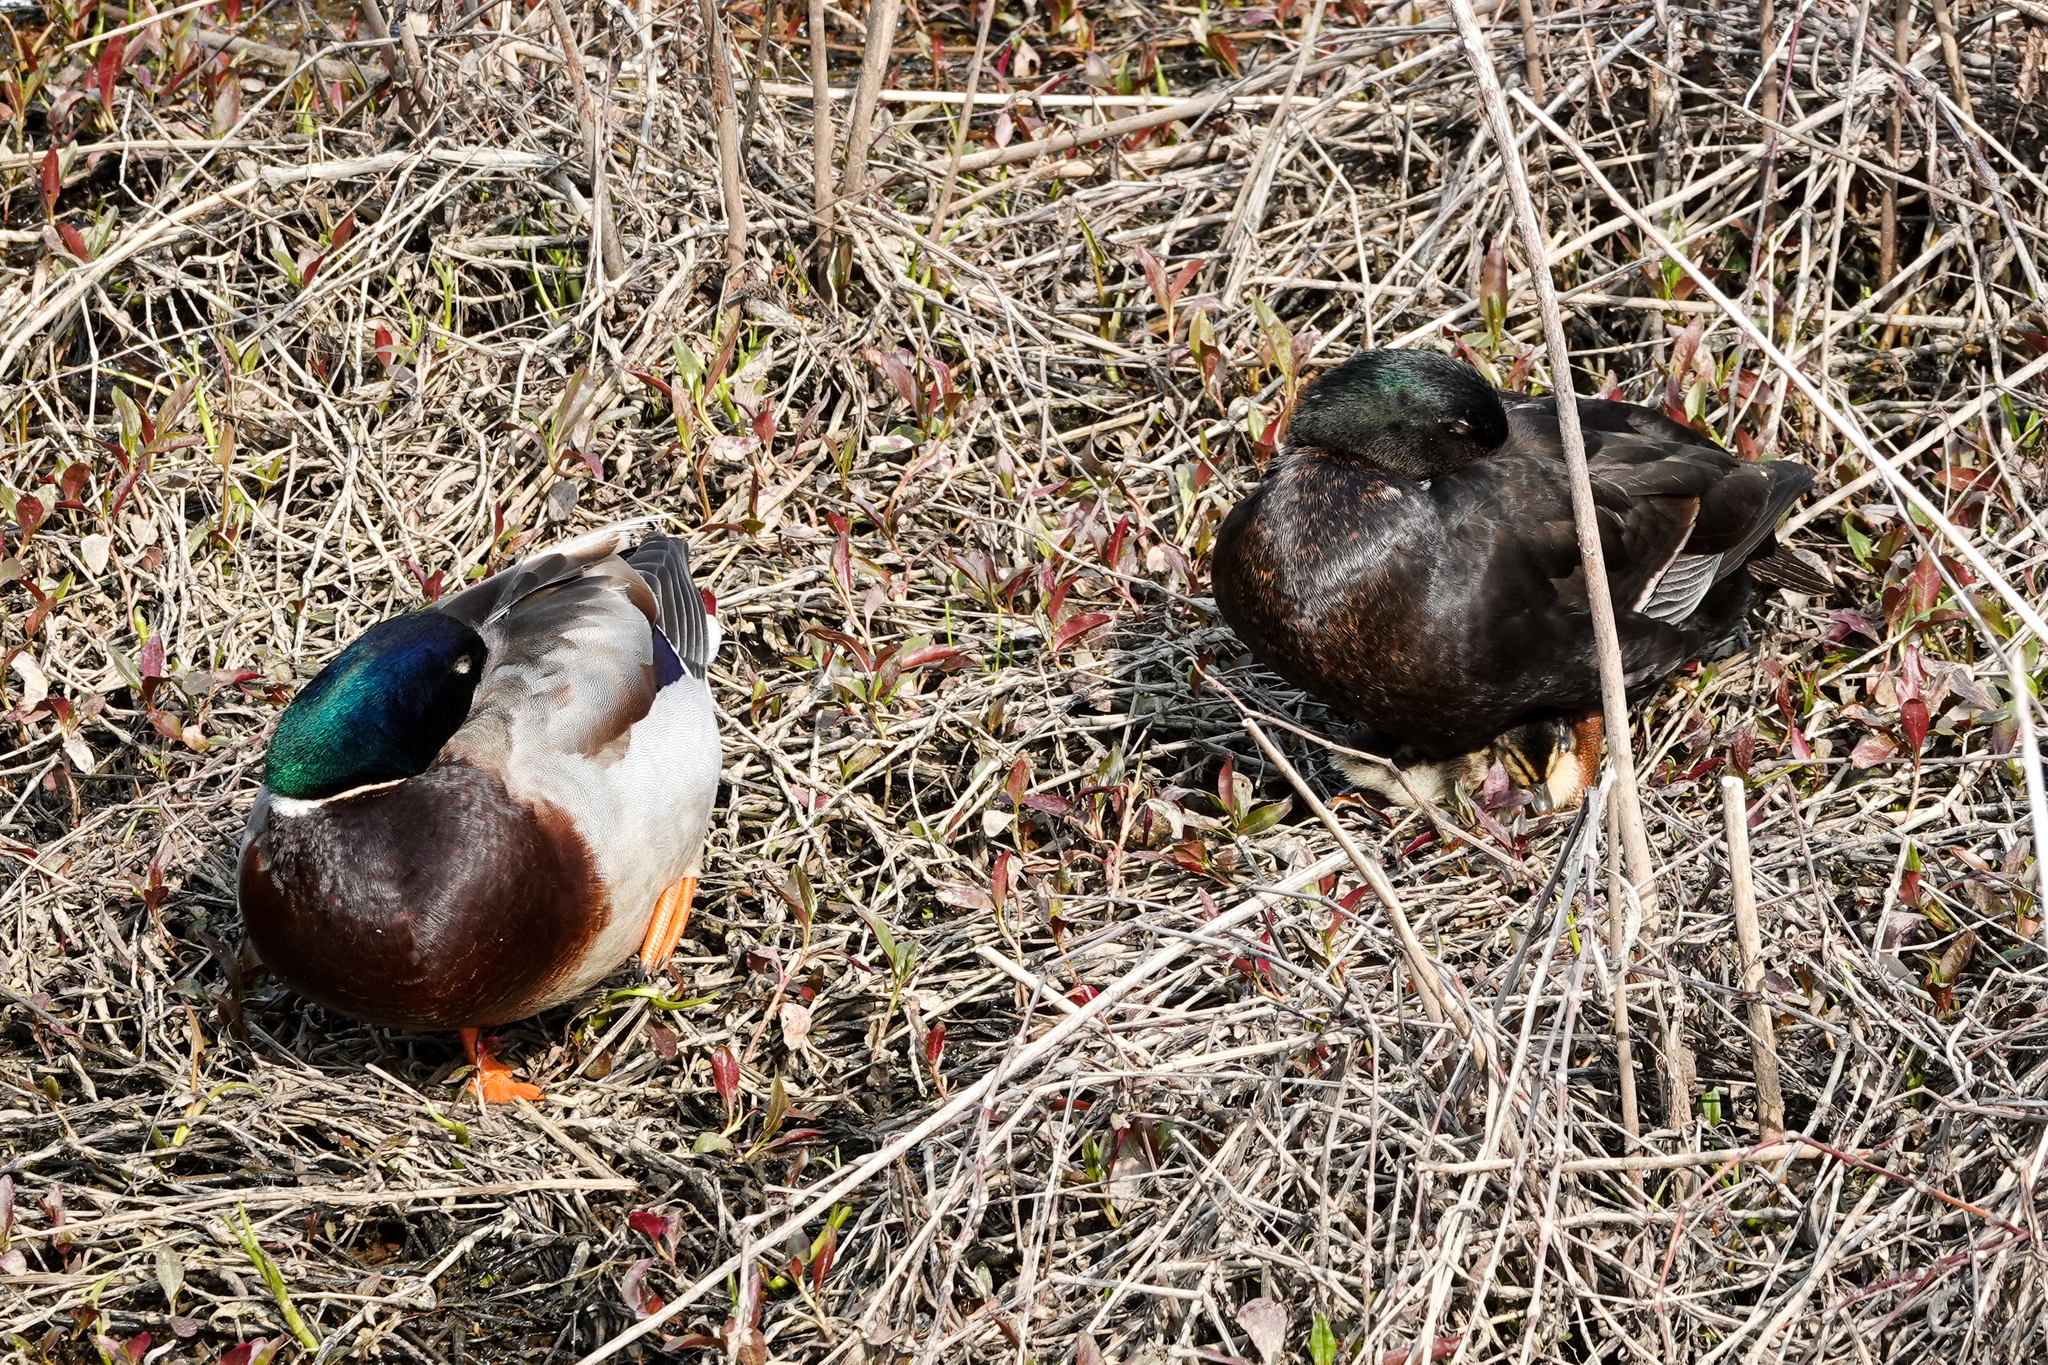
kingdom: Animalia
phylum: Chordata
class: Aves
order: Anseriformes
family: Anatidae
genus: Anas
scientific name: Anas platyrhynchos
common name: Mallard
